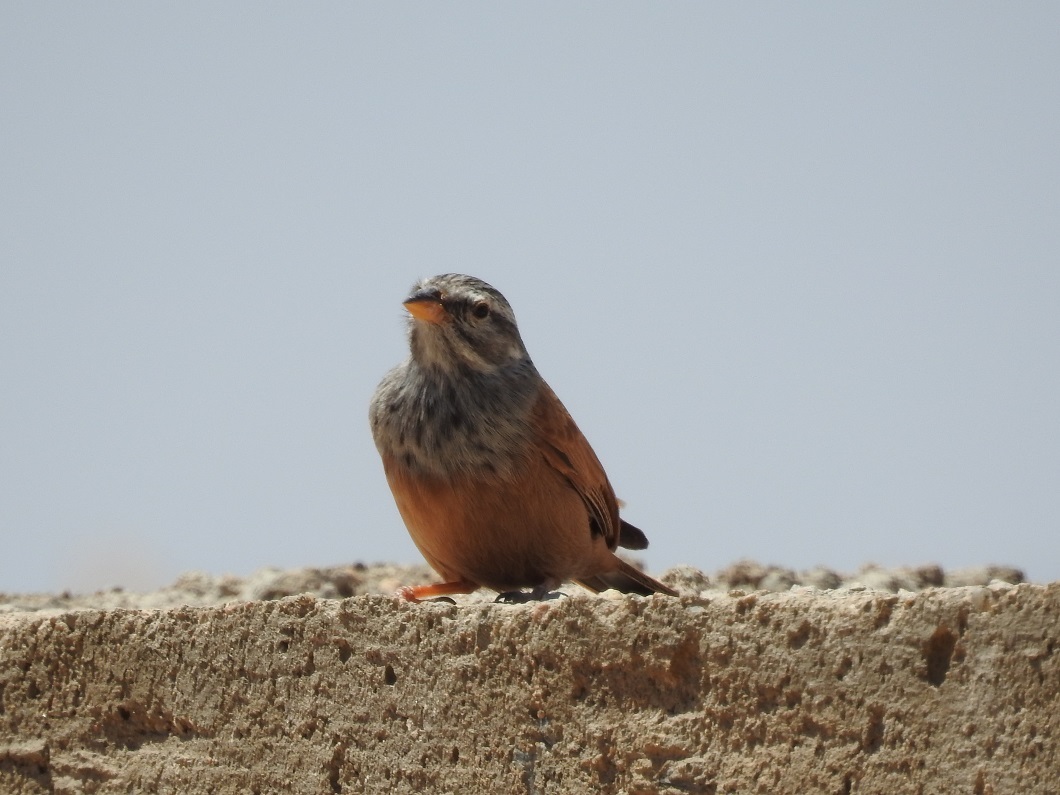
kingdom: Animalia
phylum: Chordata
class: Aves
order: Passeriformes
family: Emberizidae
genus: Emberiza
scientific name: Emberiza sahari
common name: House bunting
